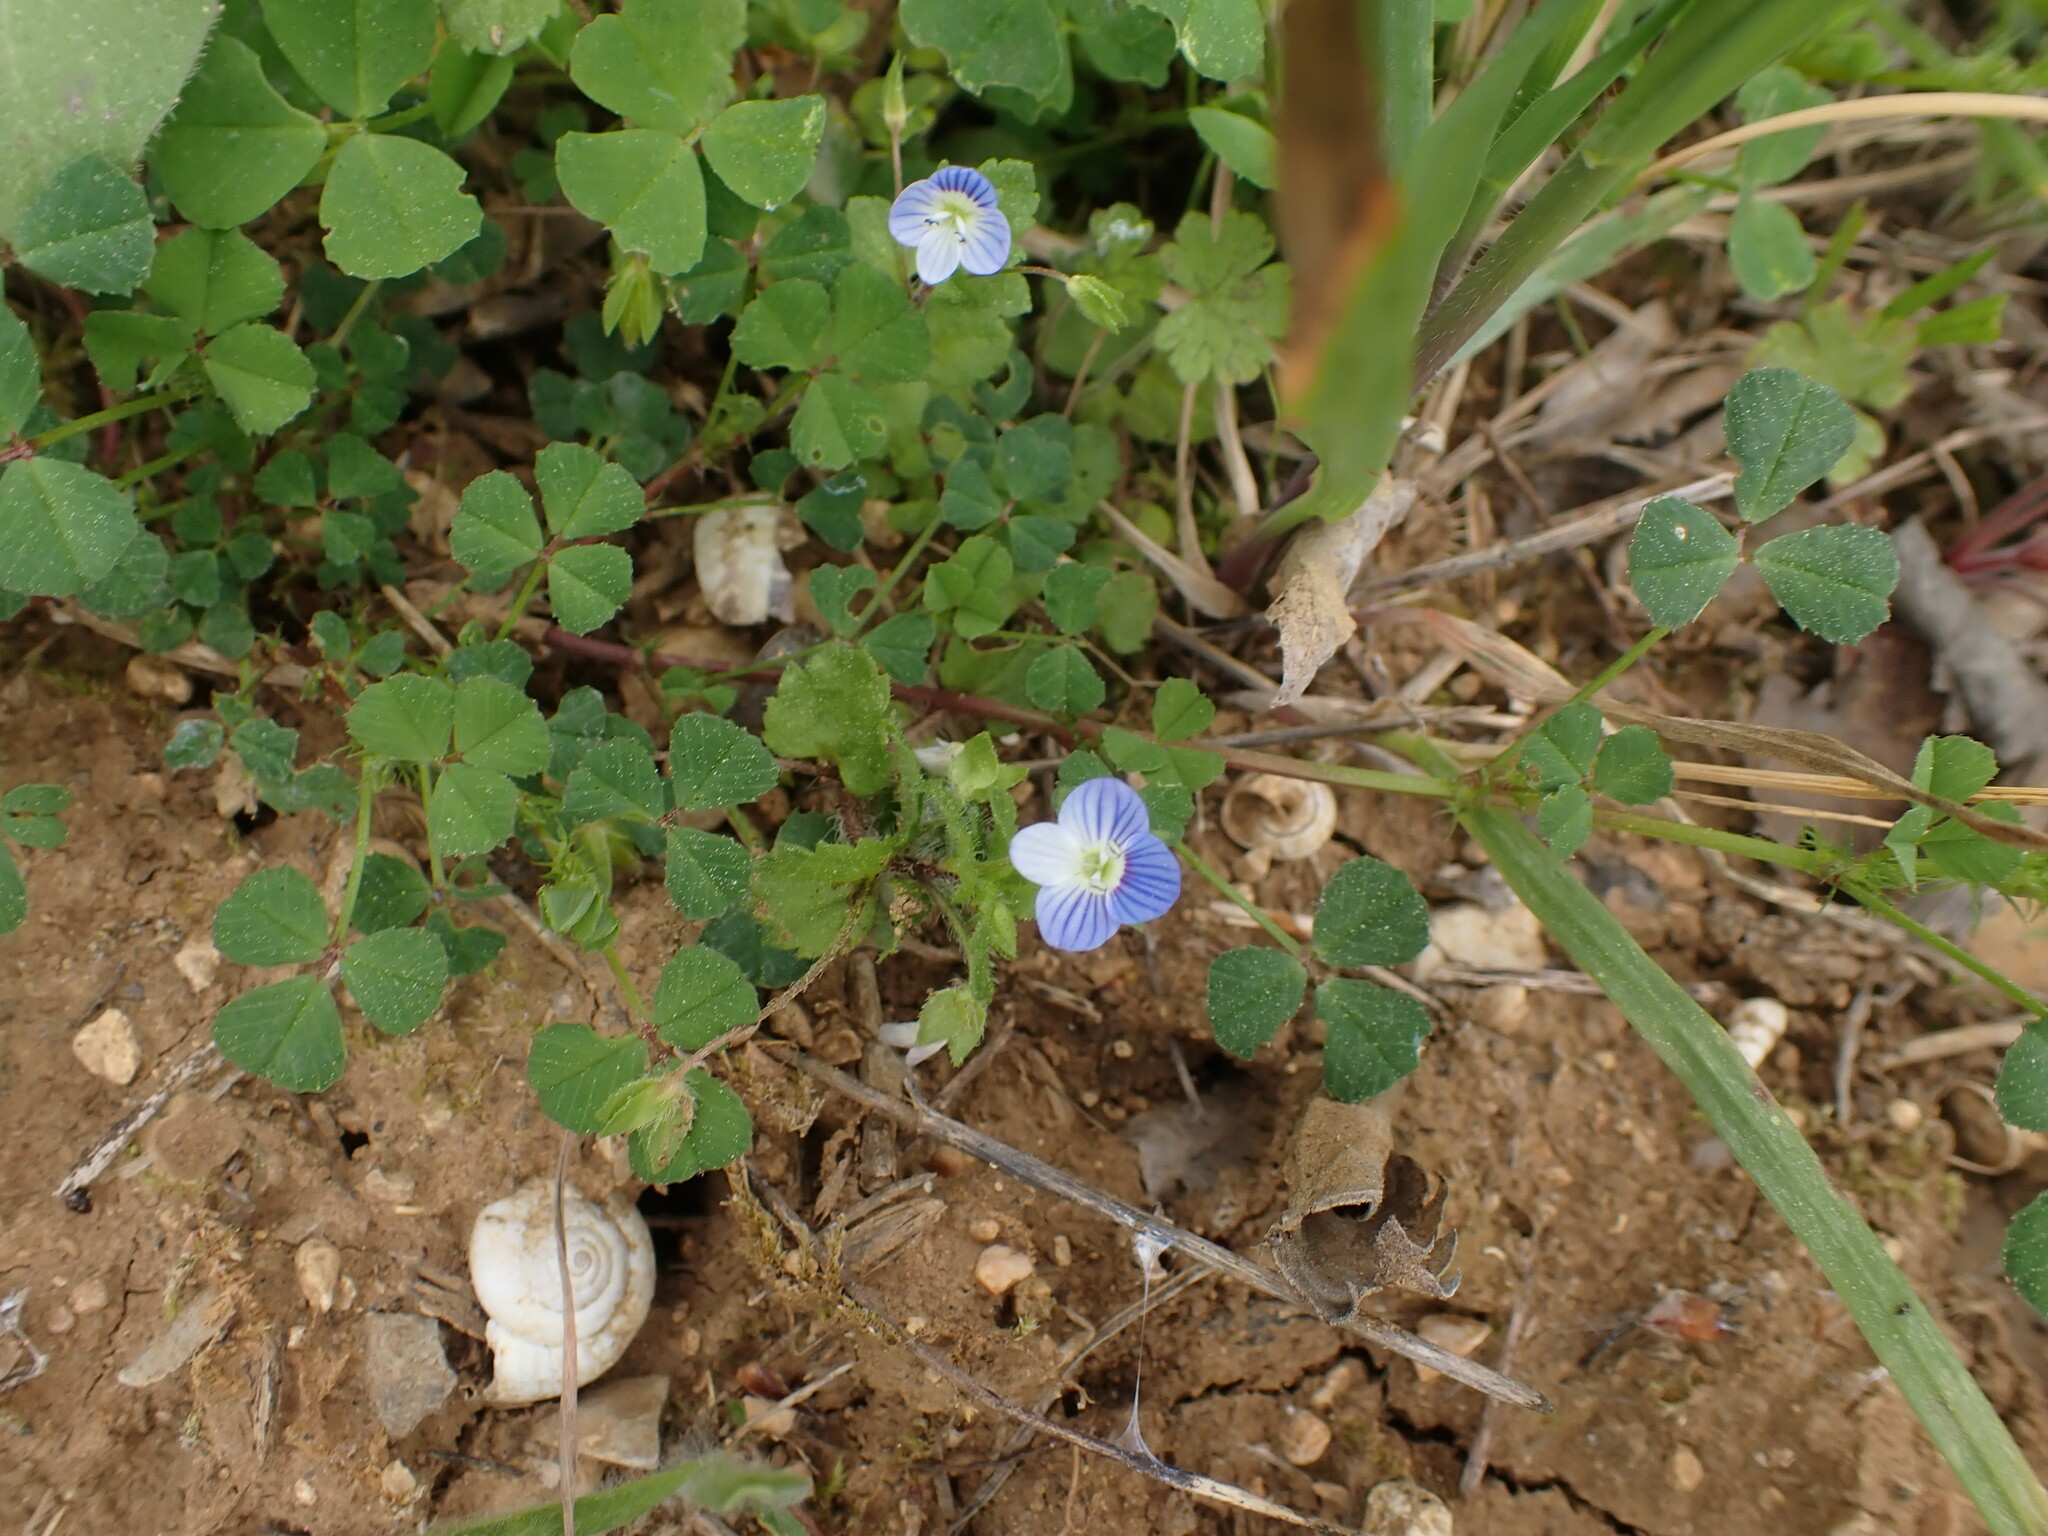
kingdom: Plantae
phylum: Tracheophyta
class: Magnoliopsida
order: Lamiales
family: Plantaginaceae
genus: Veronica
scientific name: Veronica persica
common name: Common field-speedwell
